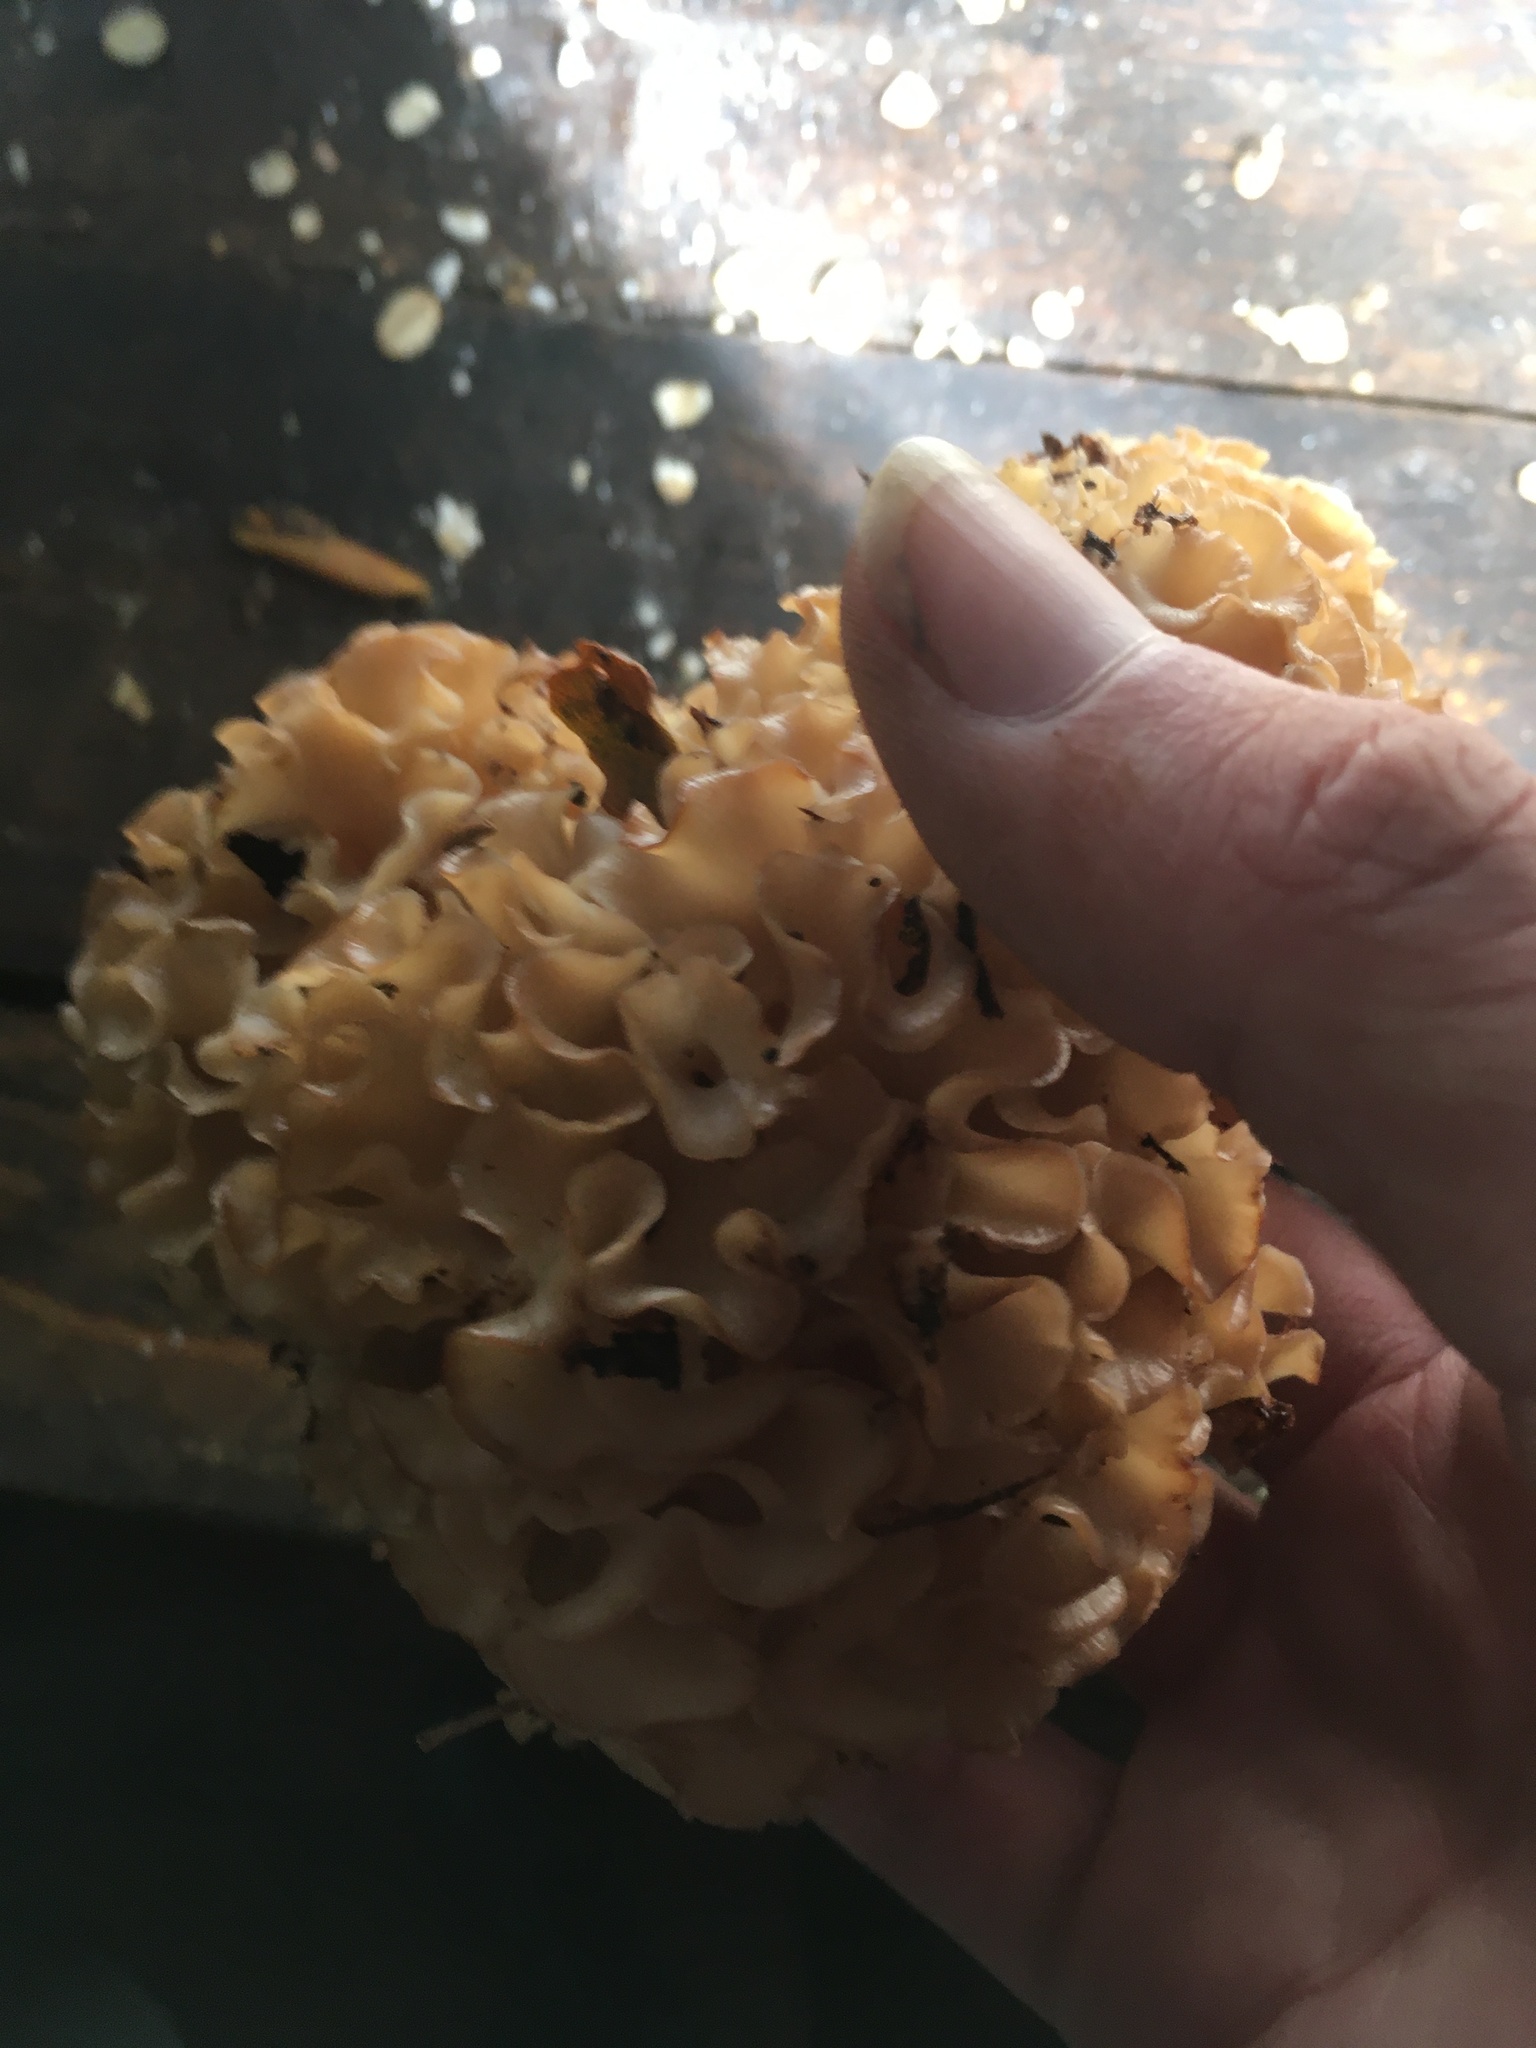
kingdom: Fungi
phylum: Basidiomycota
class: Agaricomycetes
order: Polyporales
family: Sparassidaceae
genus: Sparassis
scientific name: Sparassis crispa
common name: Brain fungus
